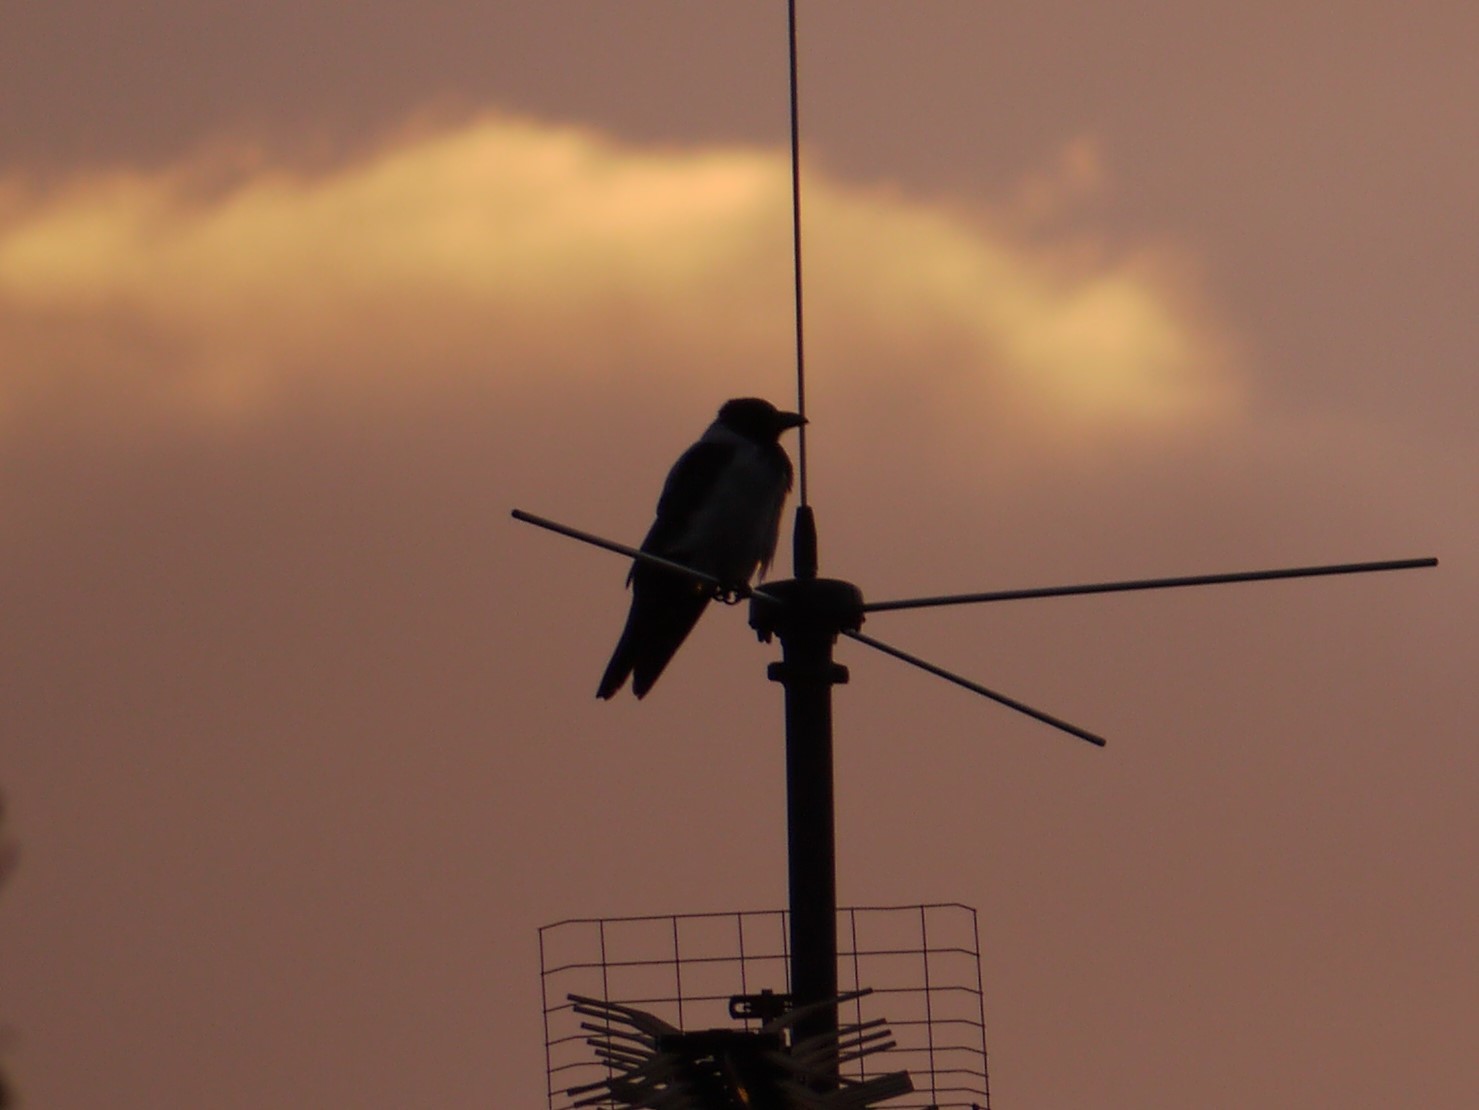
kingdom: Animalia
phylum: Chordata
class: Aves
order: Passeriformes
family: Corvidae
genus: Corvus
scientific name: Corvus cornix
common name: Hooded crow
